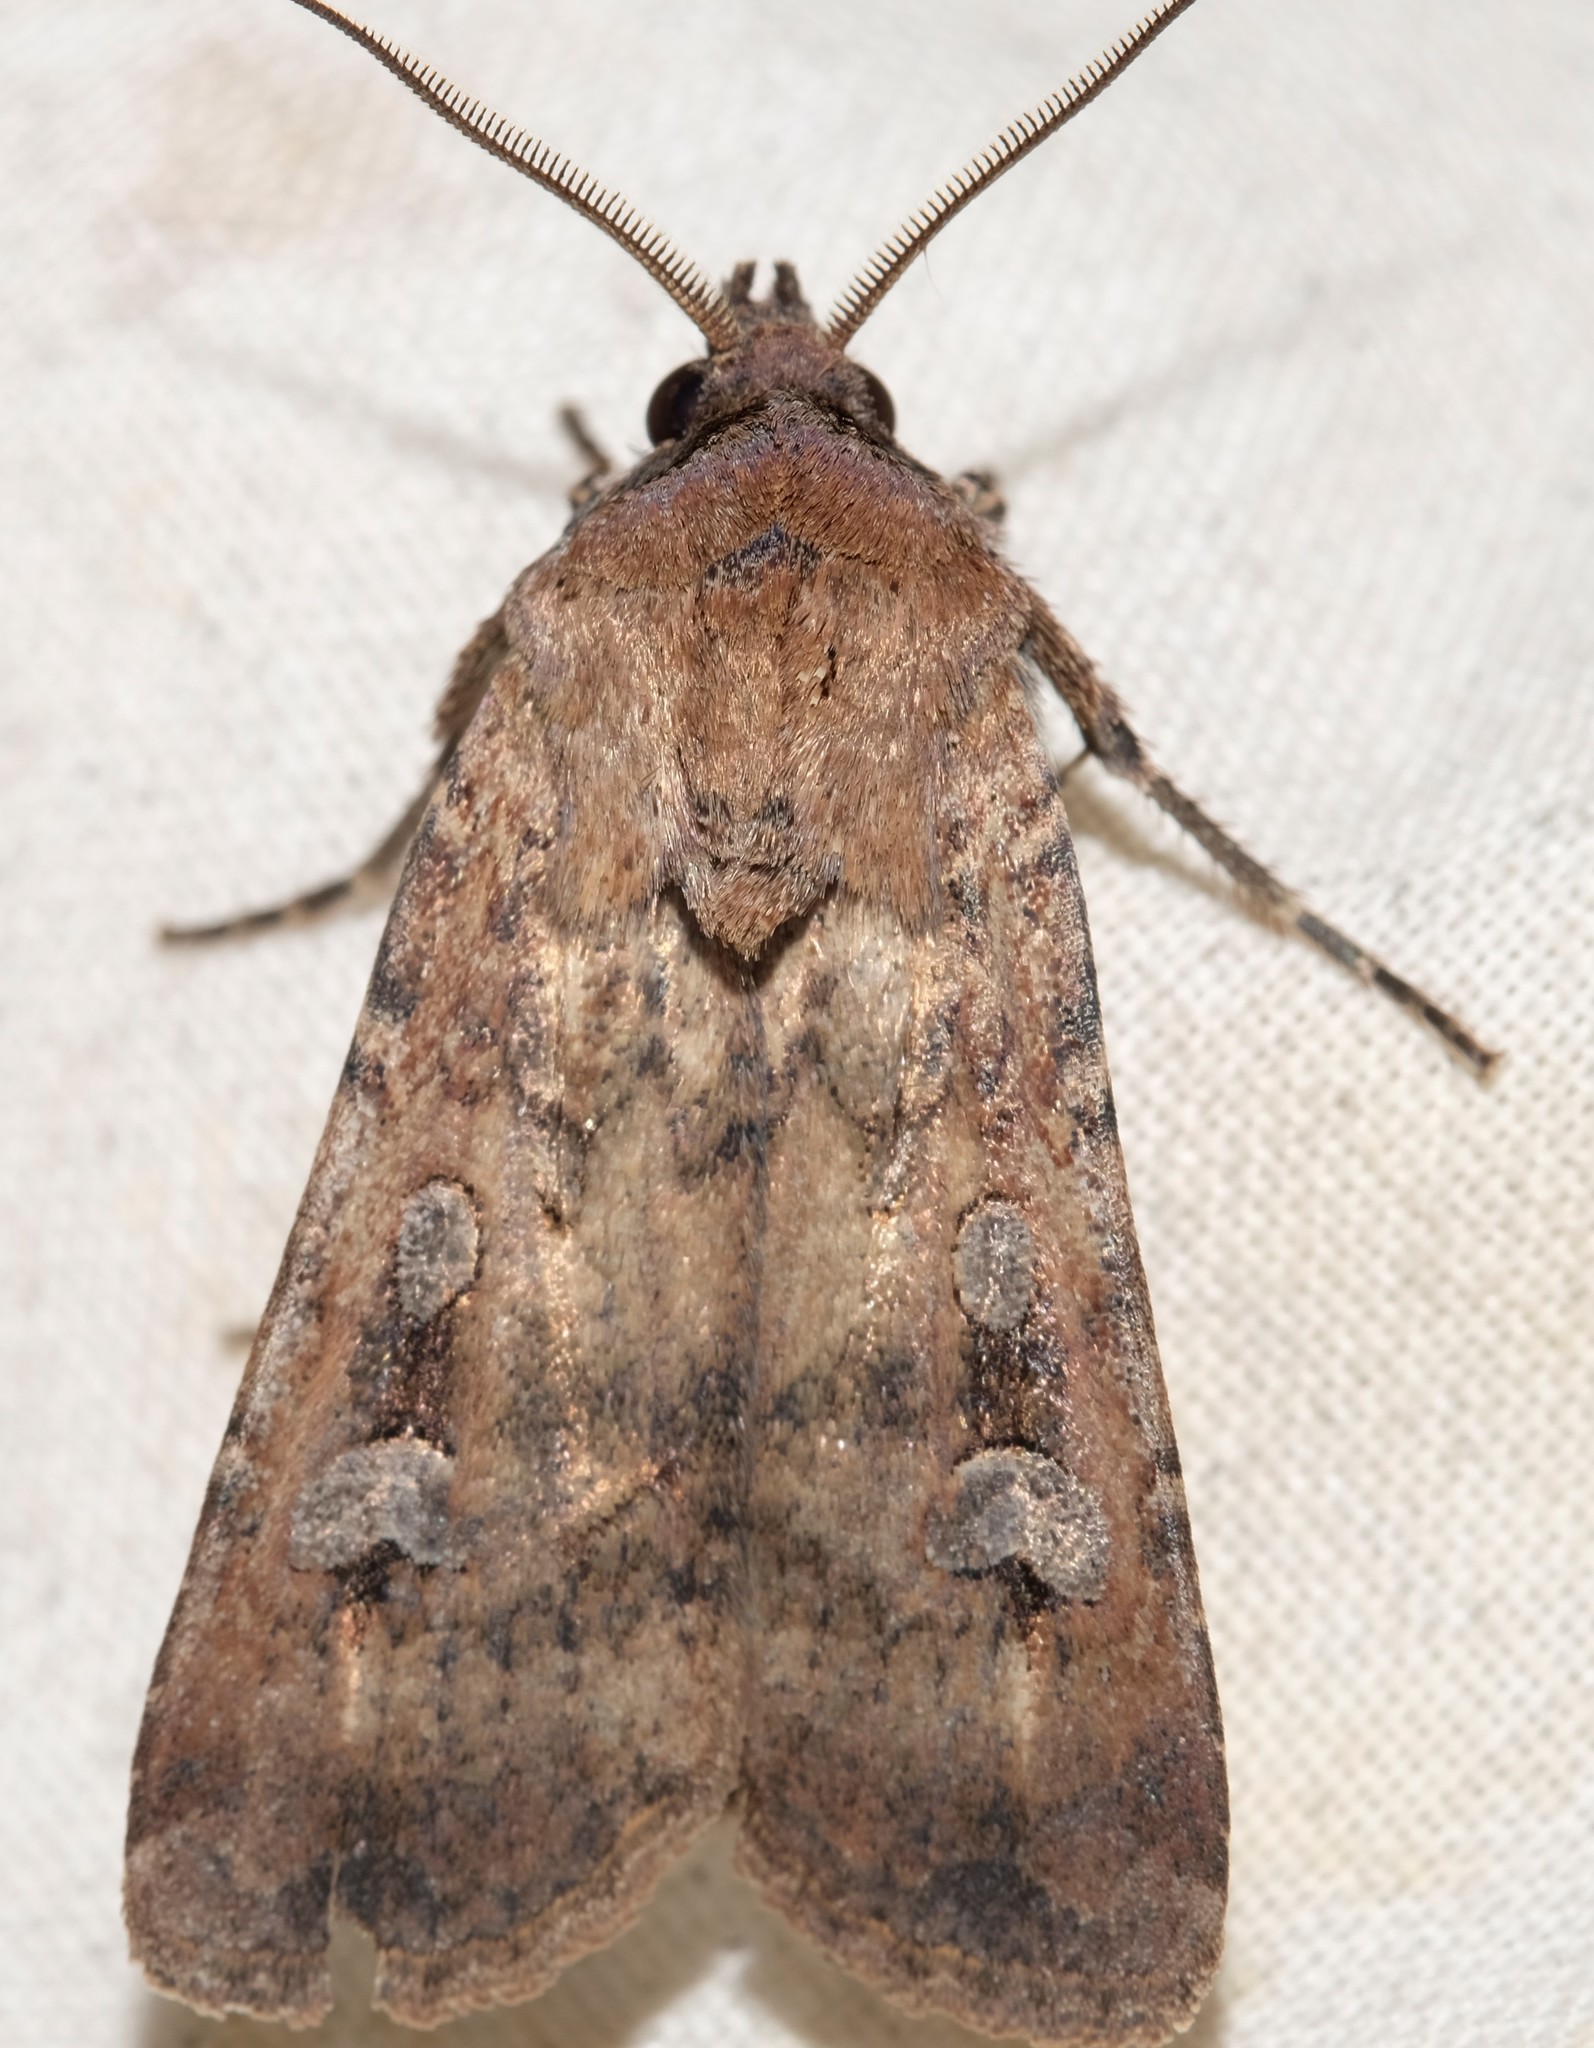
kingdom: Animalia
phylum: Arthropoda
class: Insecta
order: Lepidoptera
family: Noctuidae
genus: Agrotis
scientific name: Agrotis infusa
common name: Bogong moth
